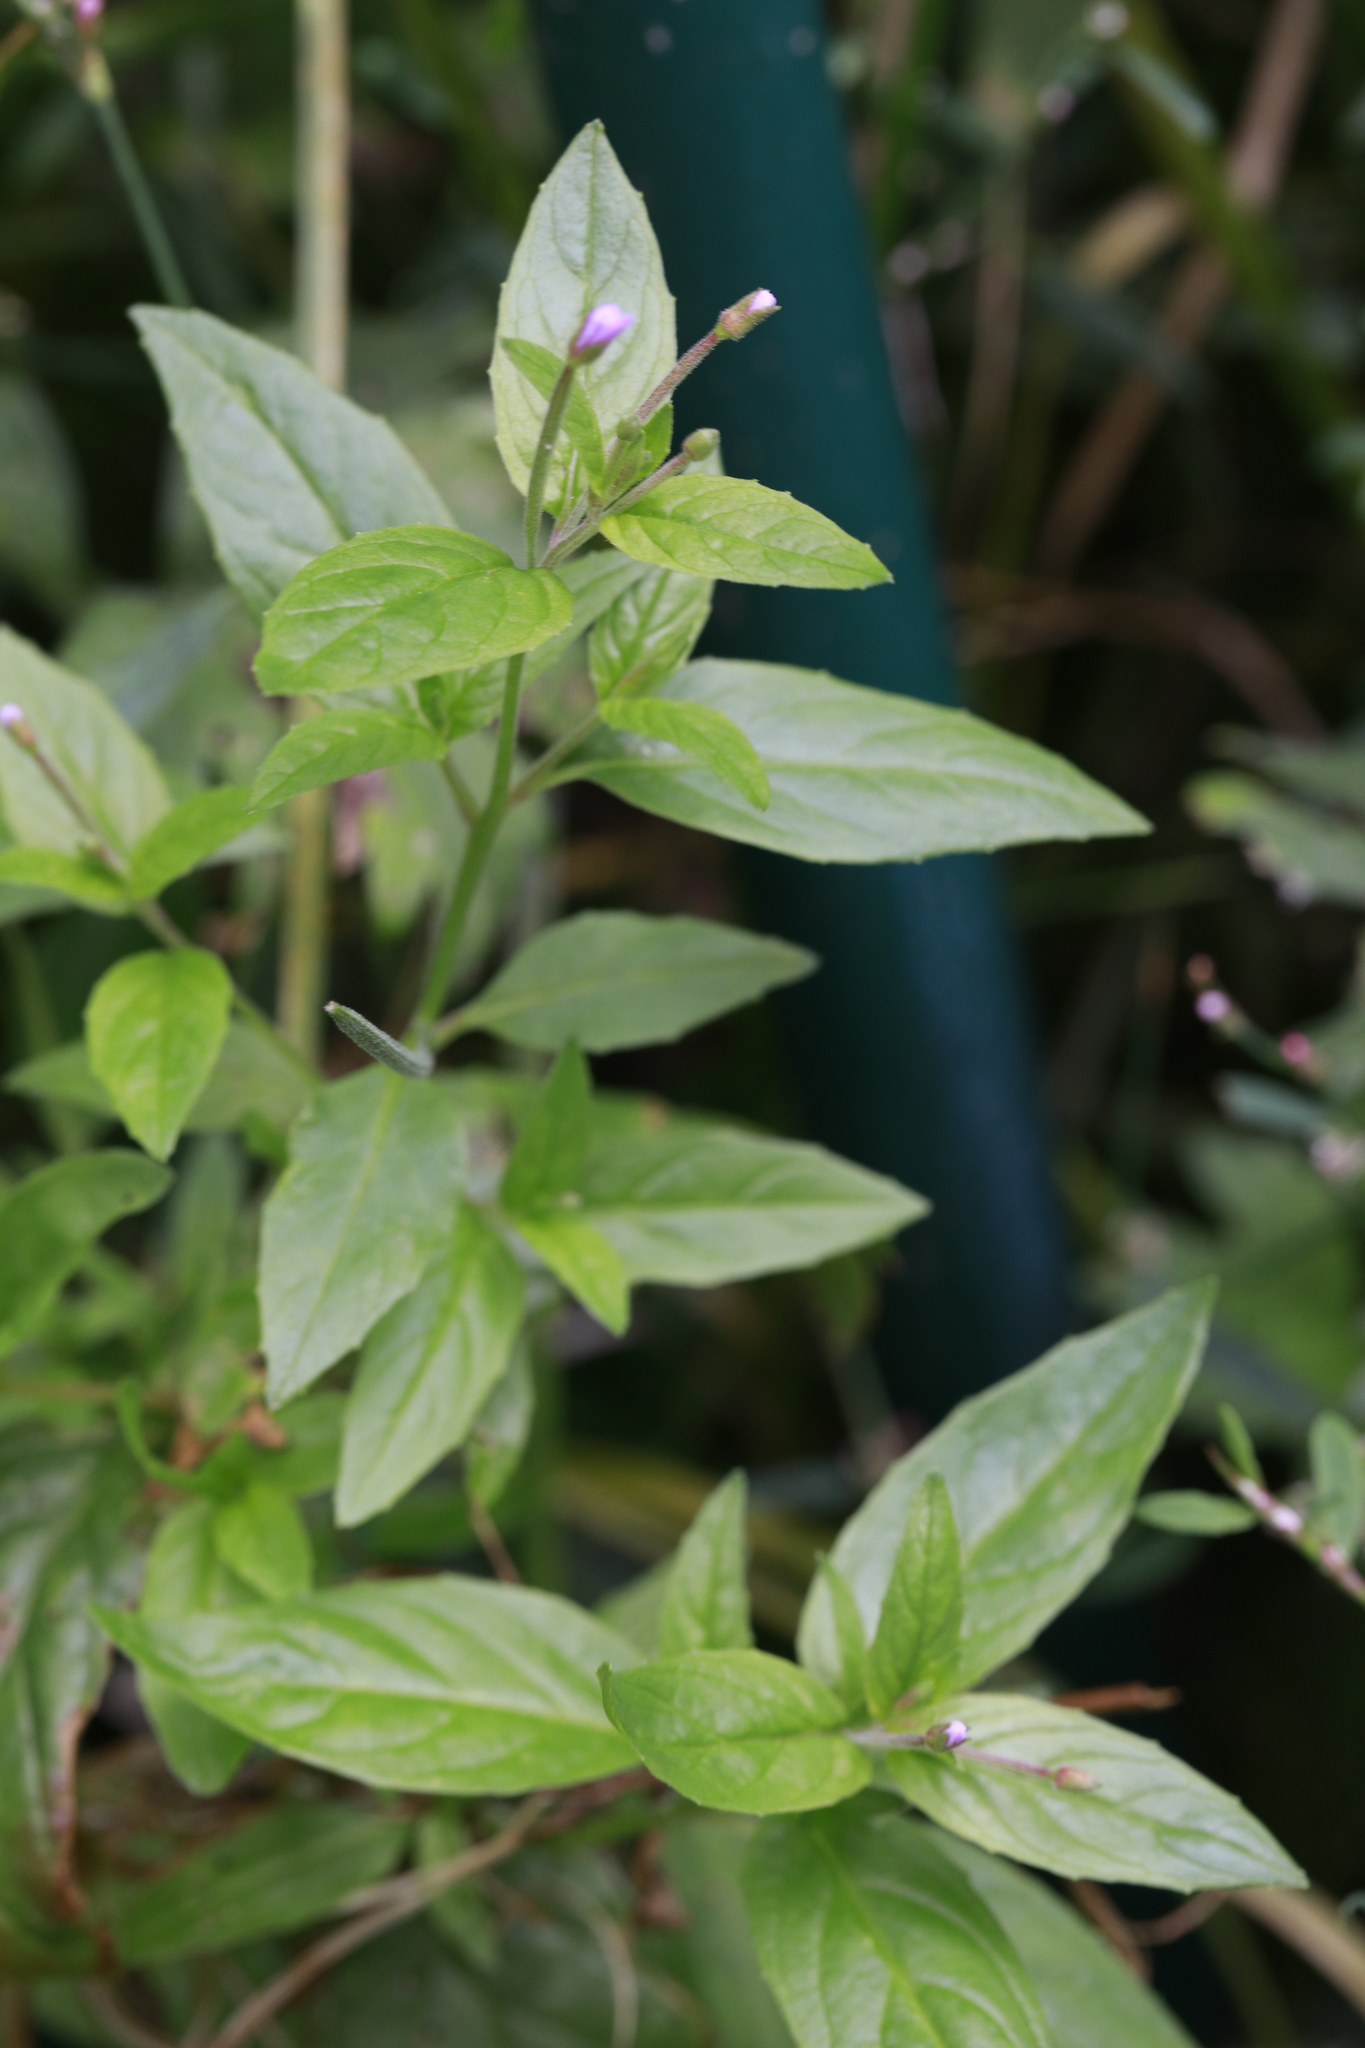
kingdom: Plantae
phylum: Tracheophyta
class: Magnoliopsida
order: Myrtales
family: Onagraceae
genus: Epilobium
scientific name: Epilobium montanum
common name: Broad-leaved willowherb
